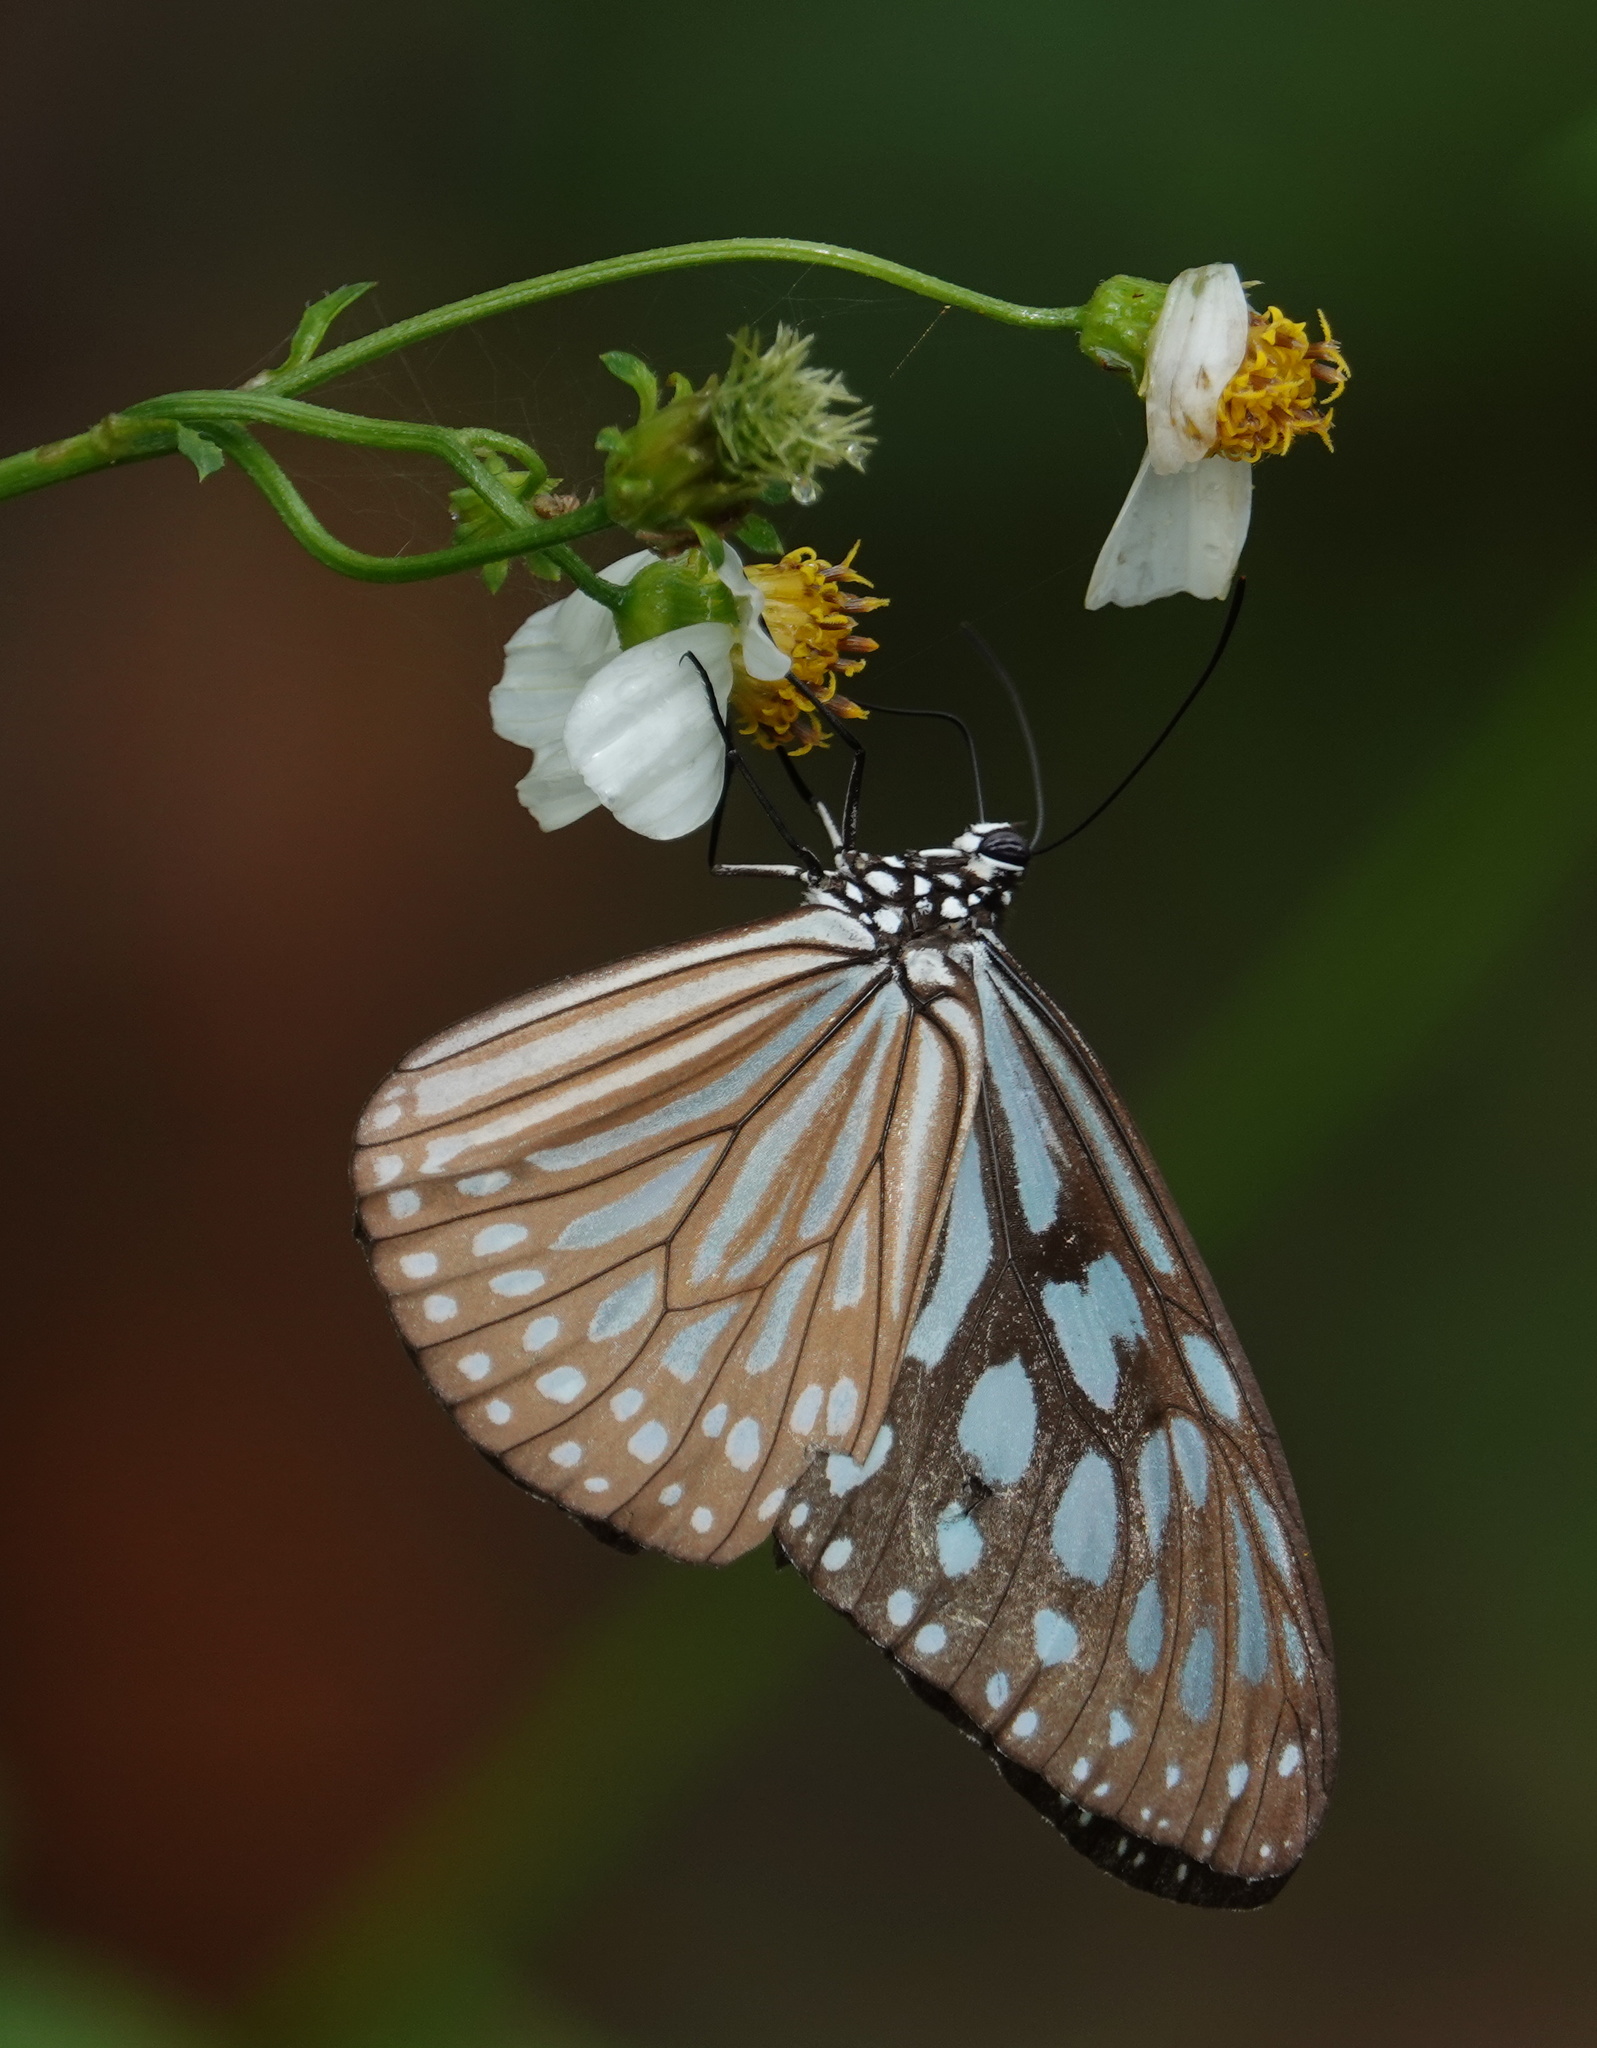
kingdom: Animalia
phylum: Arthropoda
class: Insecta
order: Lepidoptera
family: Nymphalidae
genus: Ideopsis
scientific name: Ideopsis similis
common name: Ceylon blue glassy tiger
